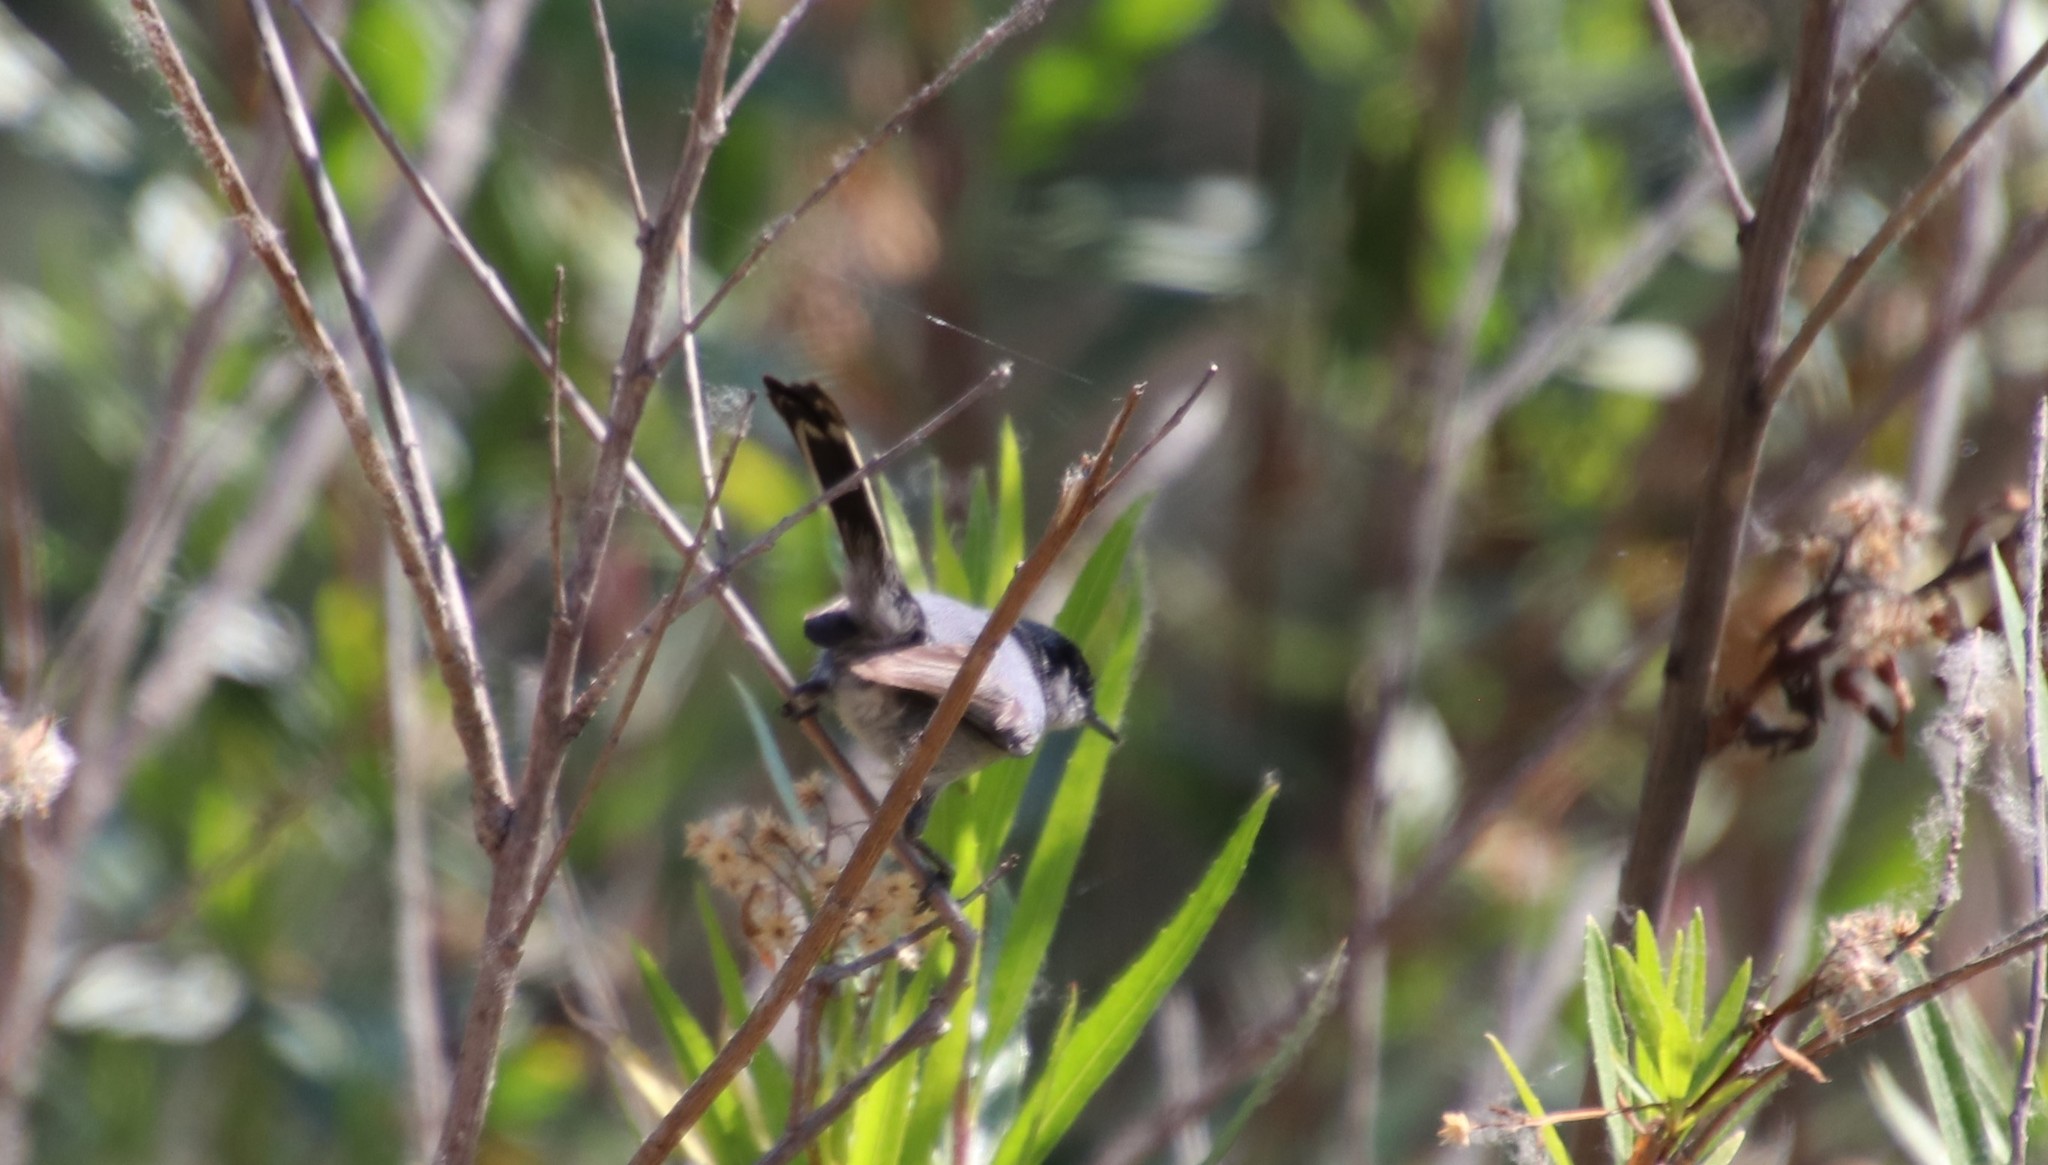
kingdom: Animalia
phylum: Chordata
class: Aves
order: Passeriformes
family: Polioptilidae
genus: Polioptila
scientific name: Polioptila californica
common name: California gnatcatcher
